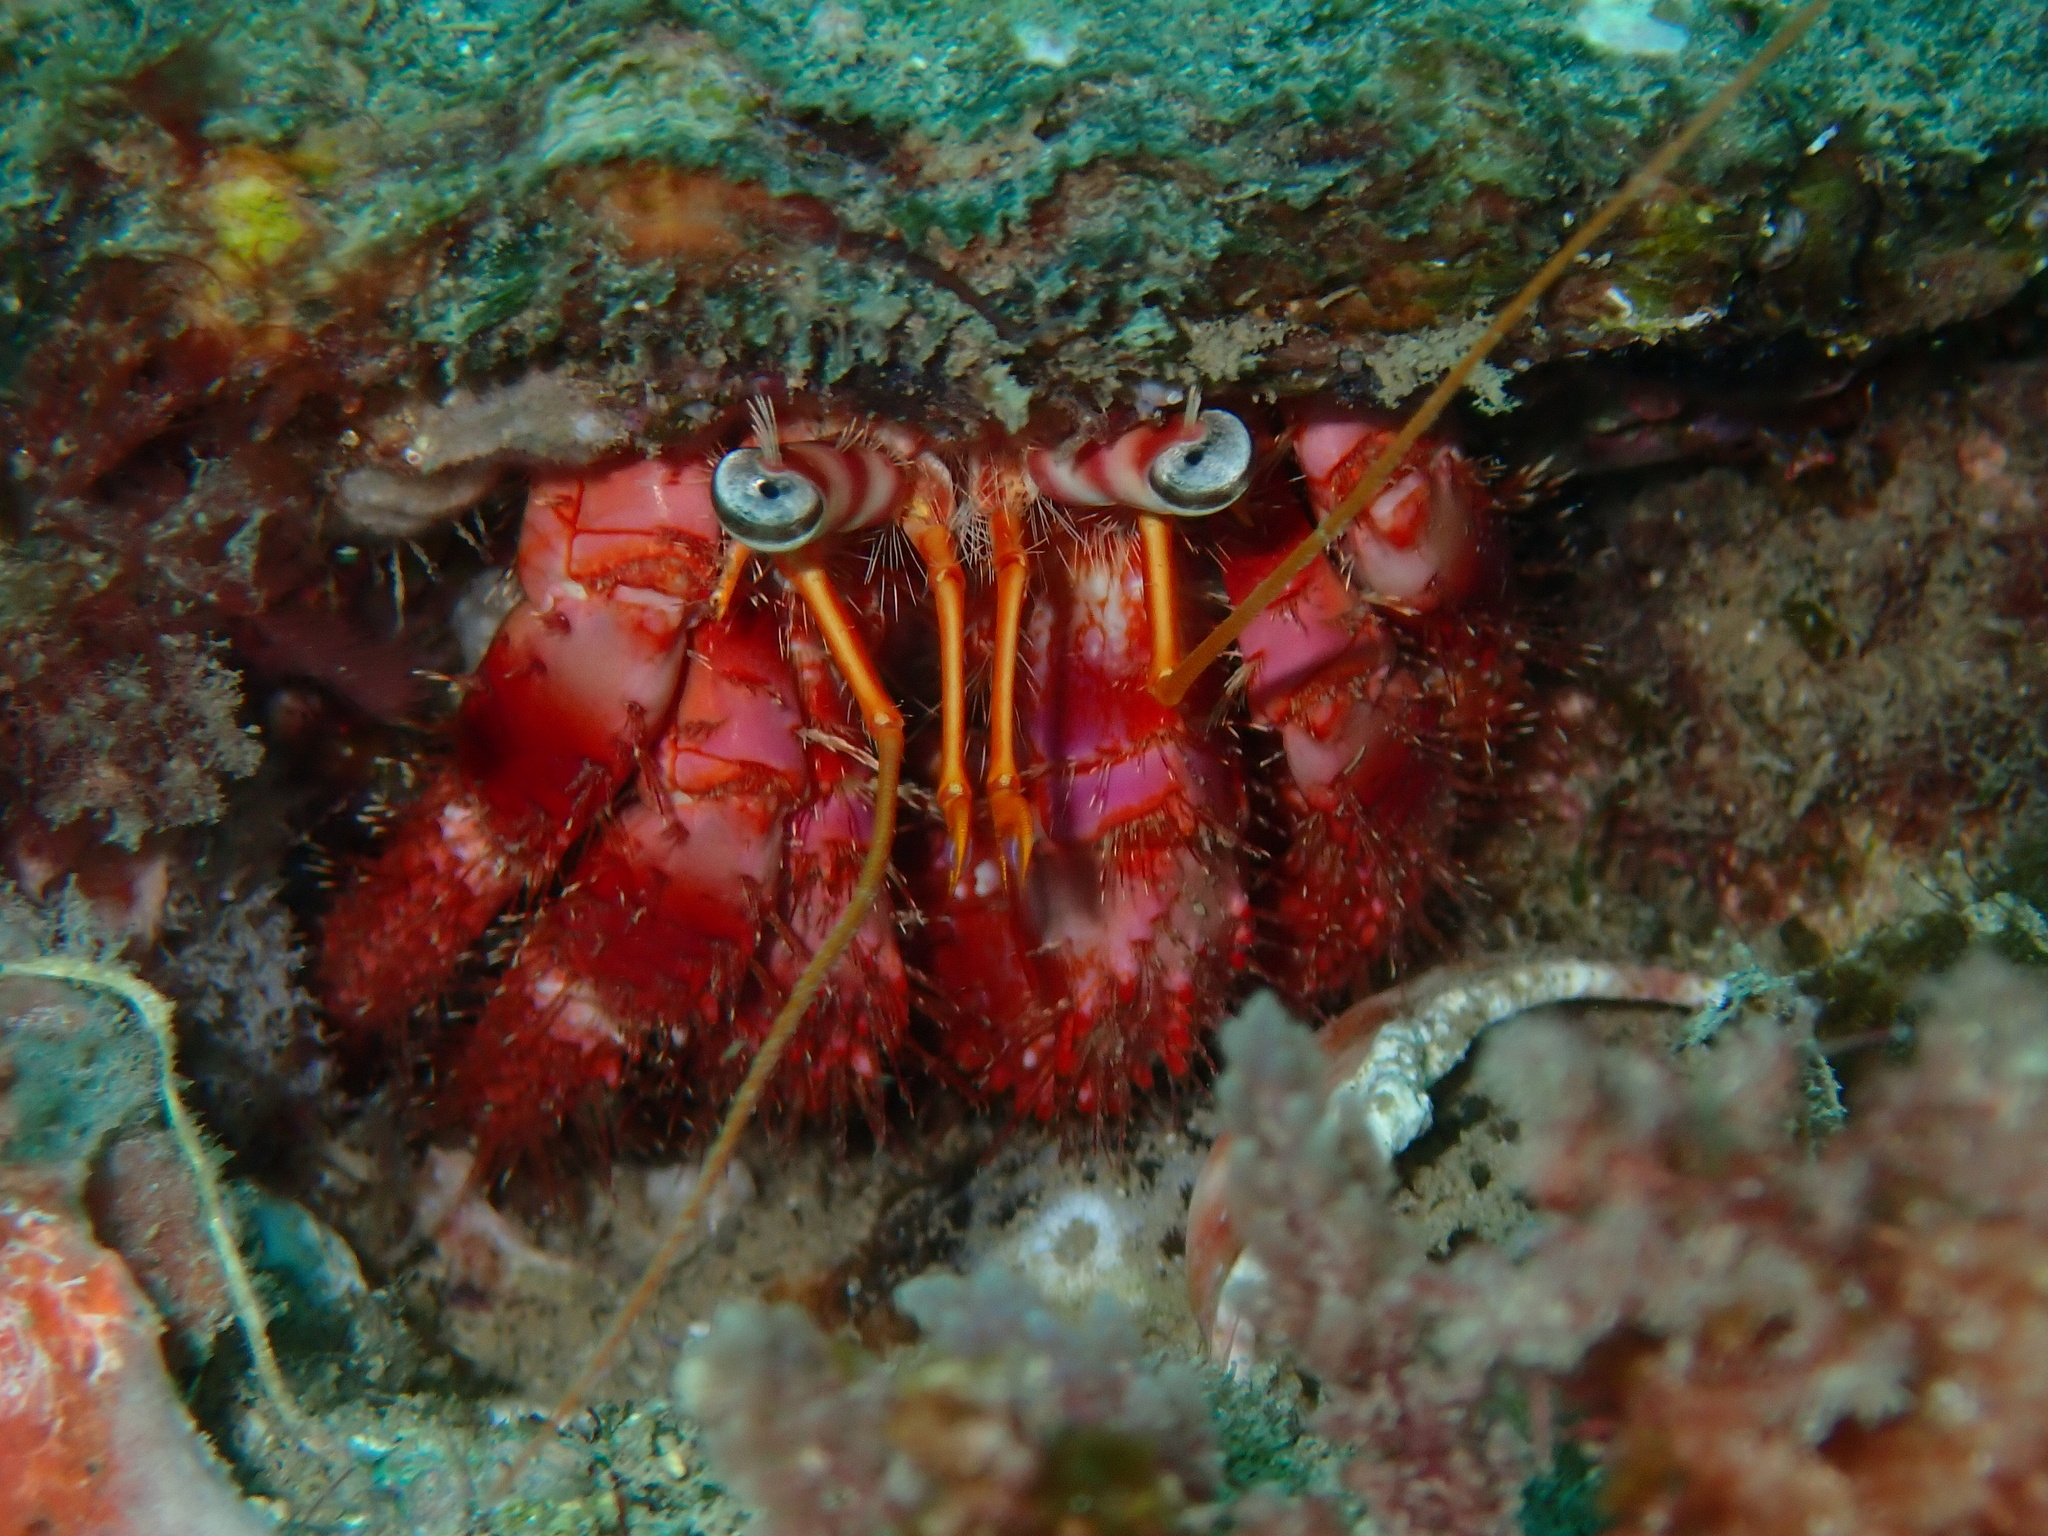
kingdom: Animalia
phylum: Arthropoda
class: Malacostraca
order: Decapoda
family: Diogenidae
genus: Dardanus
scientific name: Dardanus calidus
